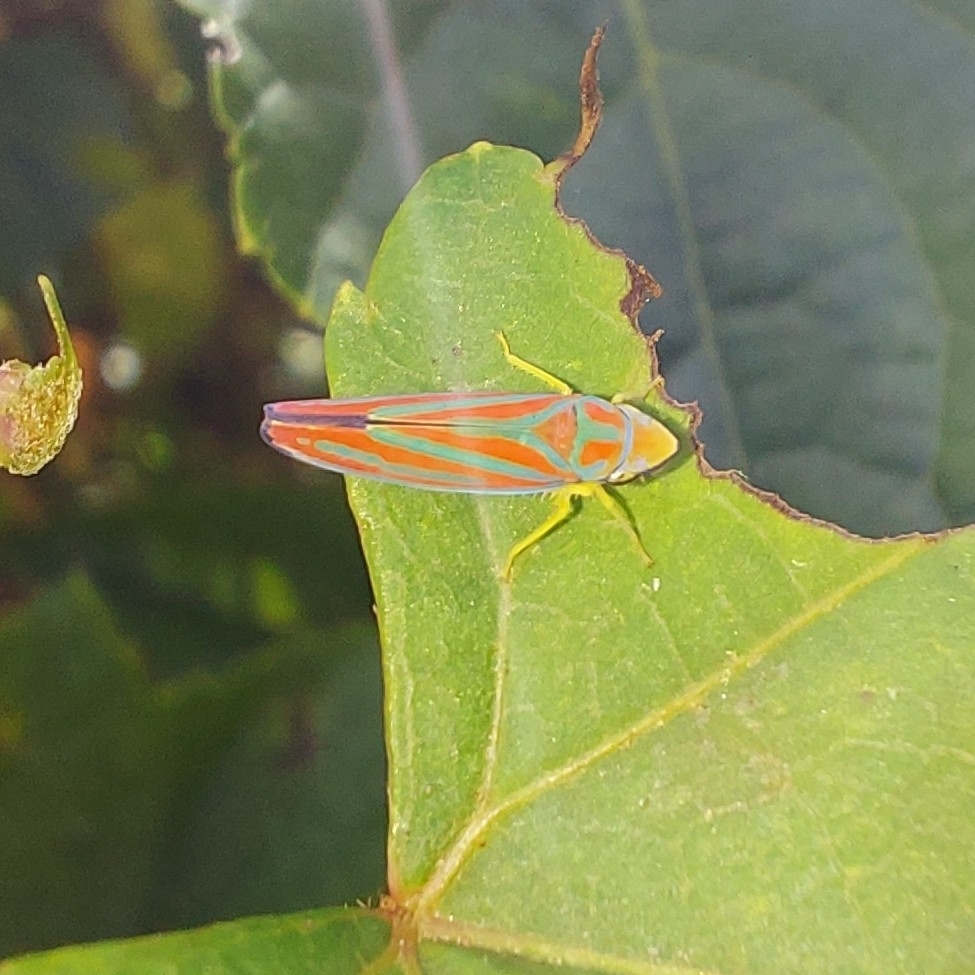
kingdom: Animalia
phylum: Arthropoda
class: Insecta
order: Hemiptera
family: Cicadellidae
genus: Graphocephala
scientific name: Graphocephala coccinea
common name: Candy-striped leafhopper
